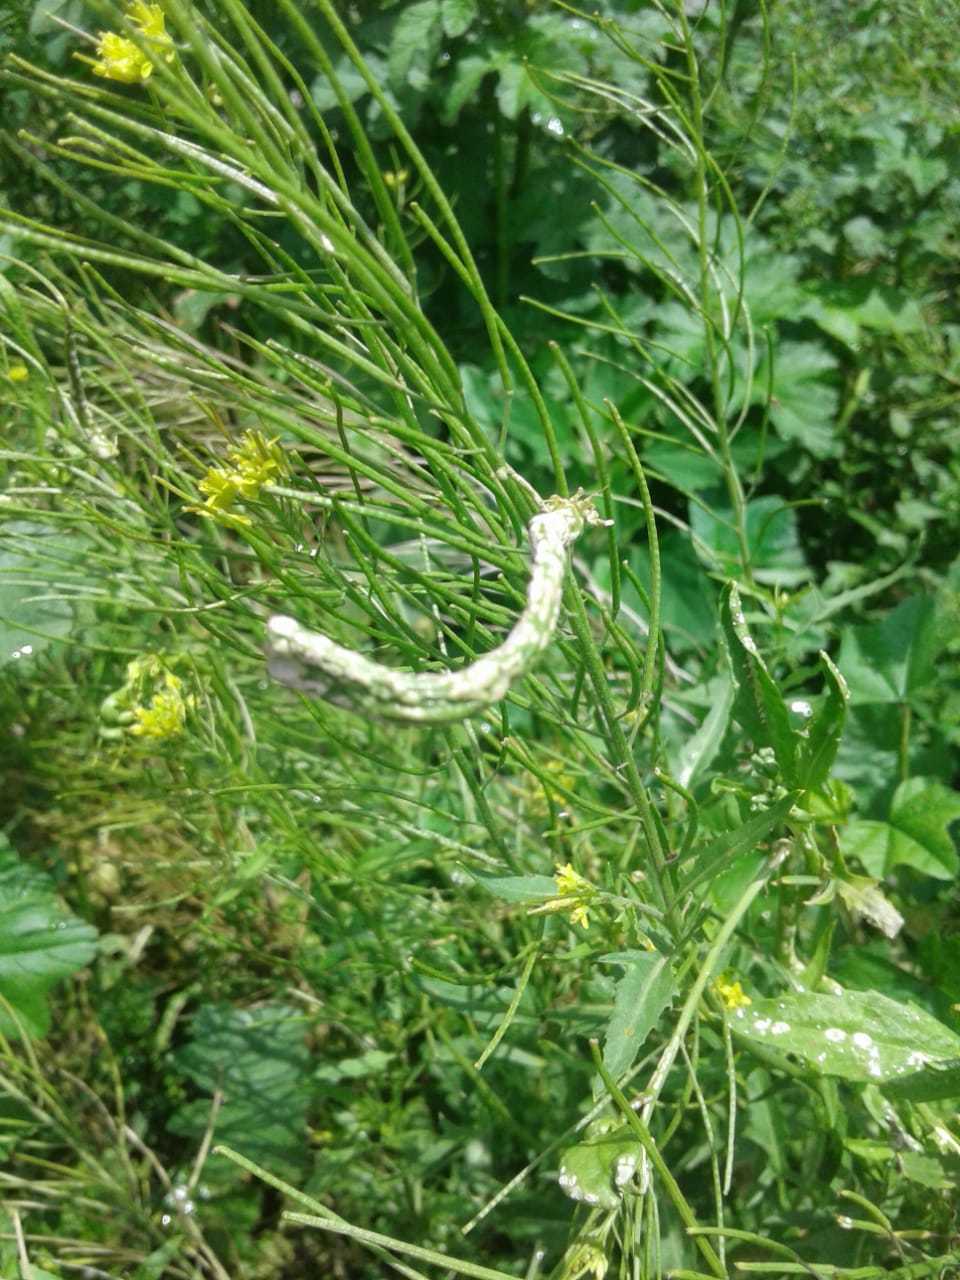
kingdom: Plantae
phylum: Tracheophyta
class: Magnoliopsida
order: Brassicales
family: Brassicaceae
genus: Sisymbrium
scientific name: Sisymbrium irio
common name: London rocket
